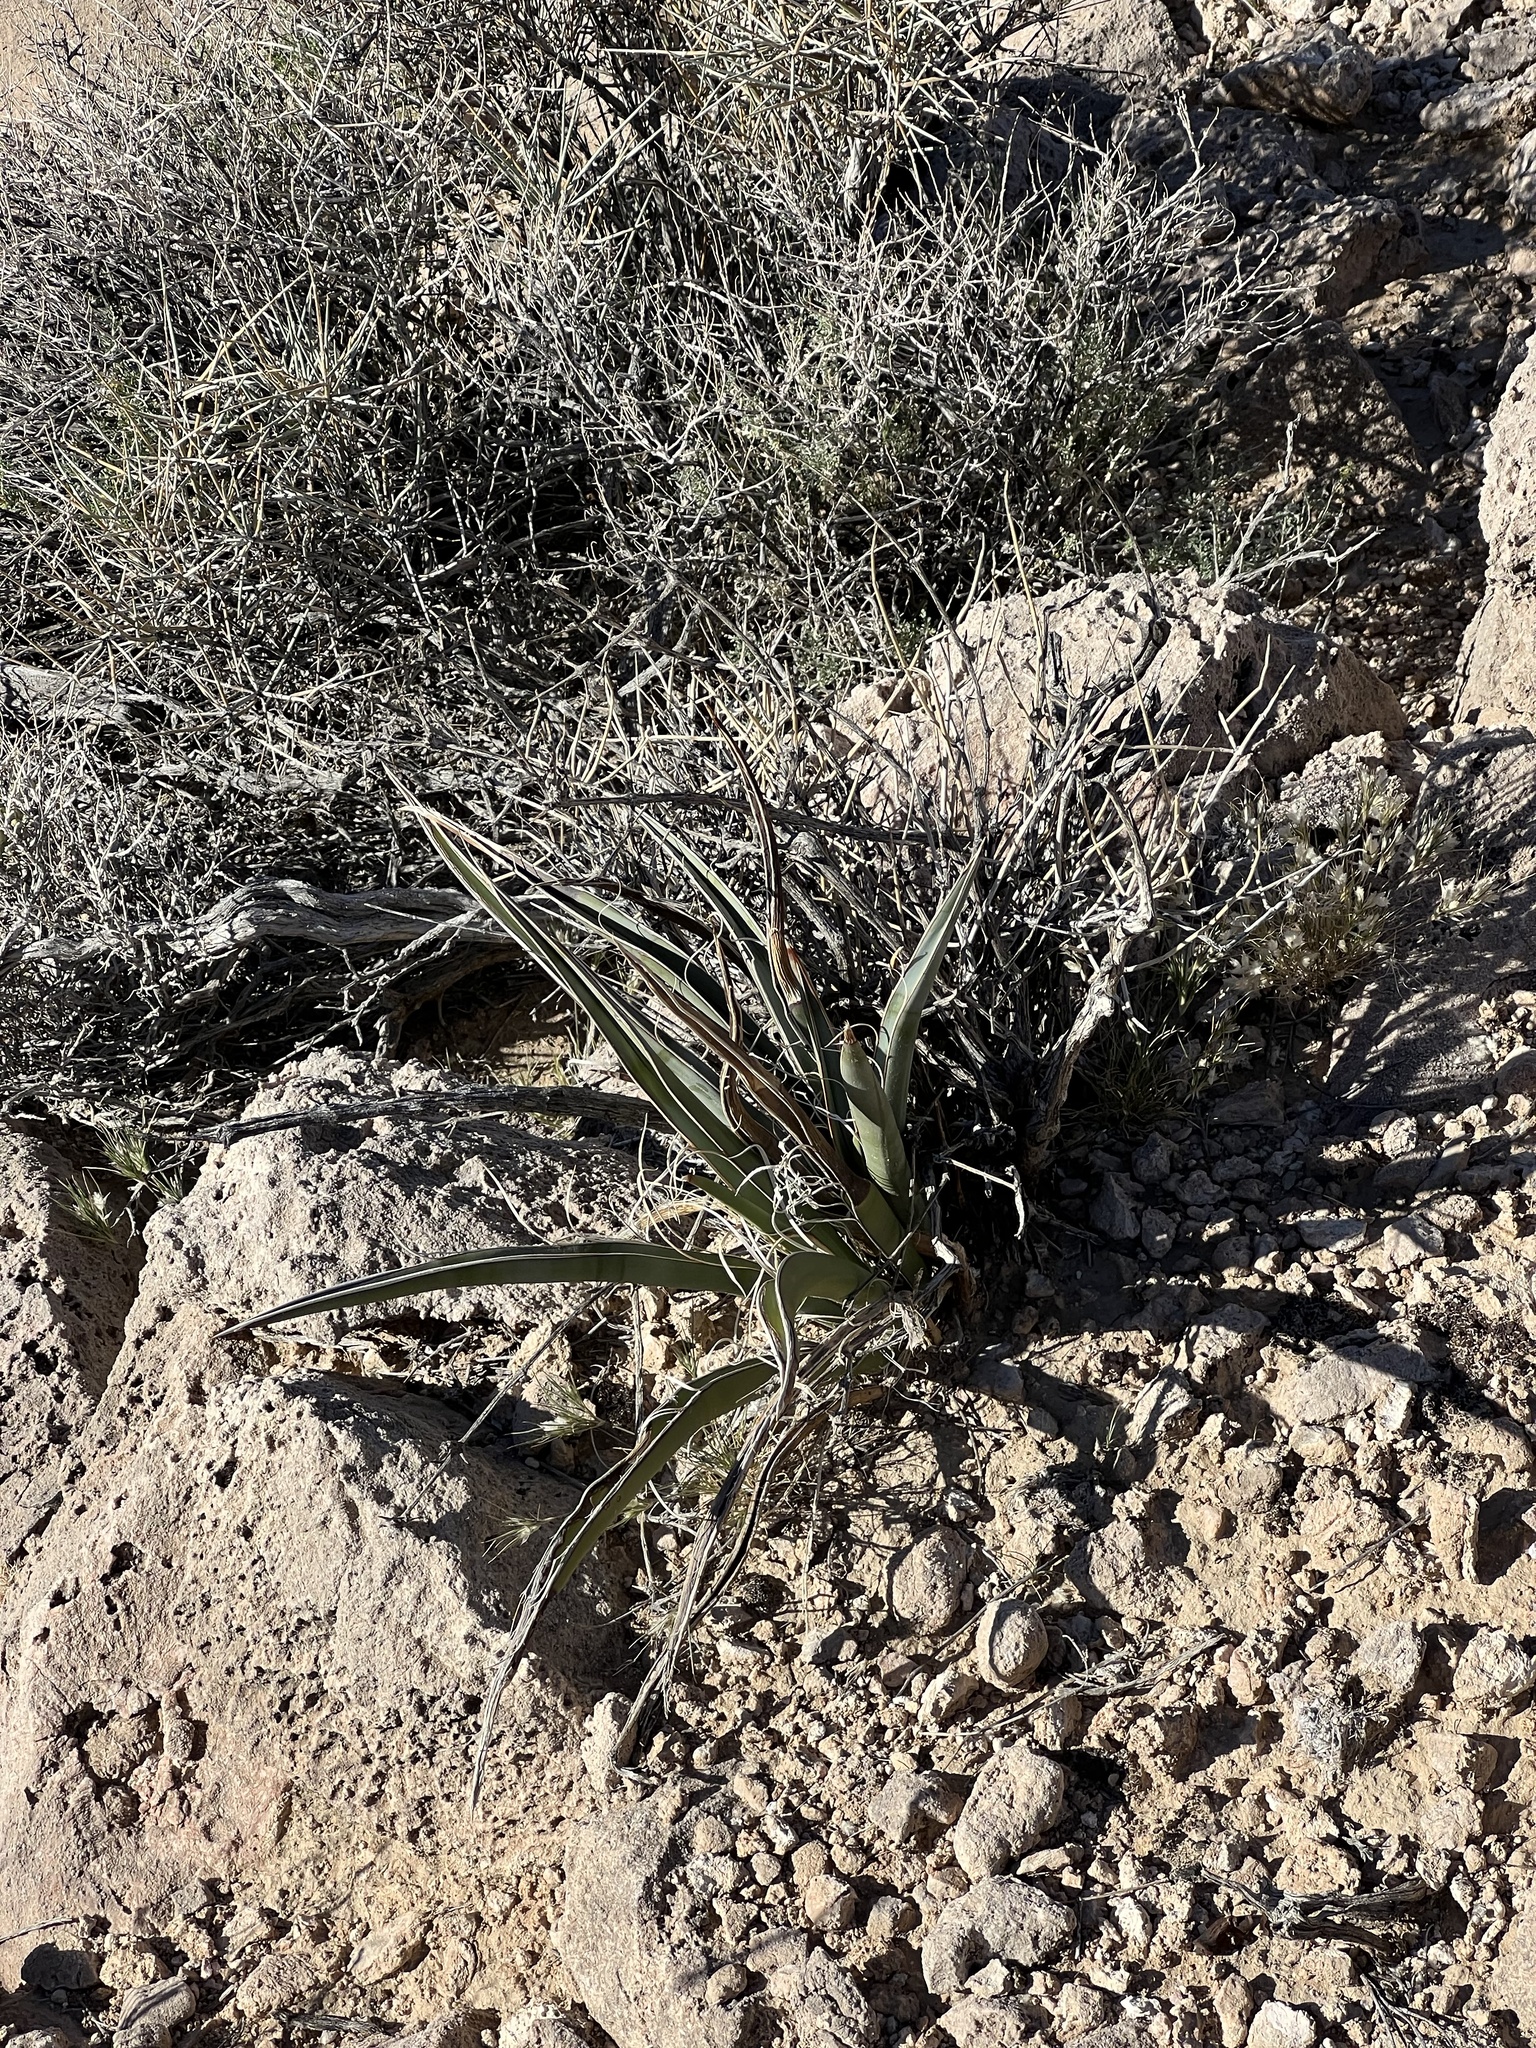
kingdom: Plantae
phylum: Tracheophyta
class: Liliopsida
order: Asparagales
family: Asparagaceae
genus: Yucca
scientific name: Yucca schidigera
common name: Mojave yucca
